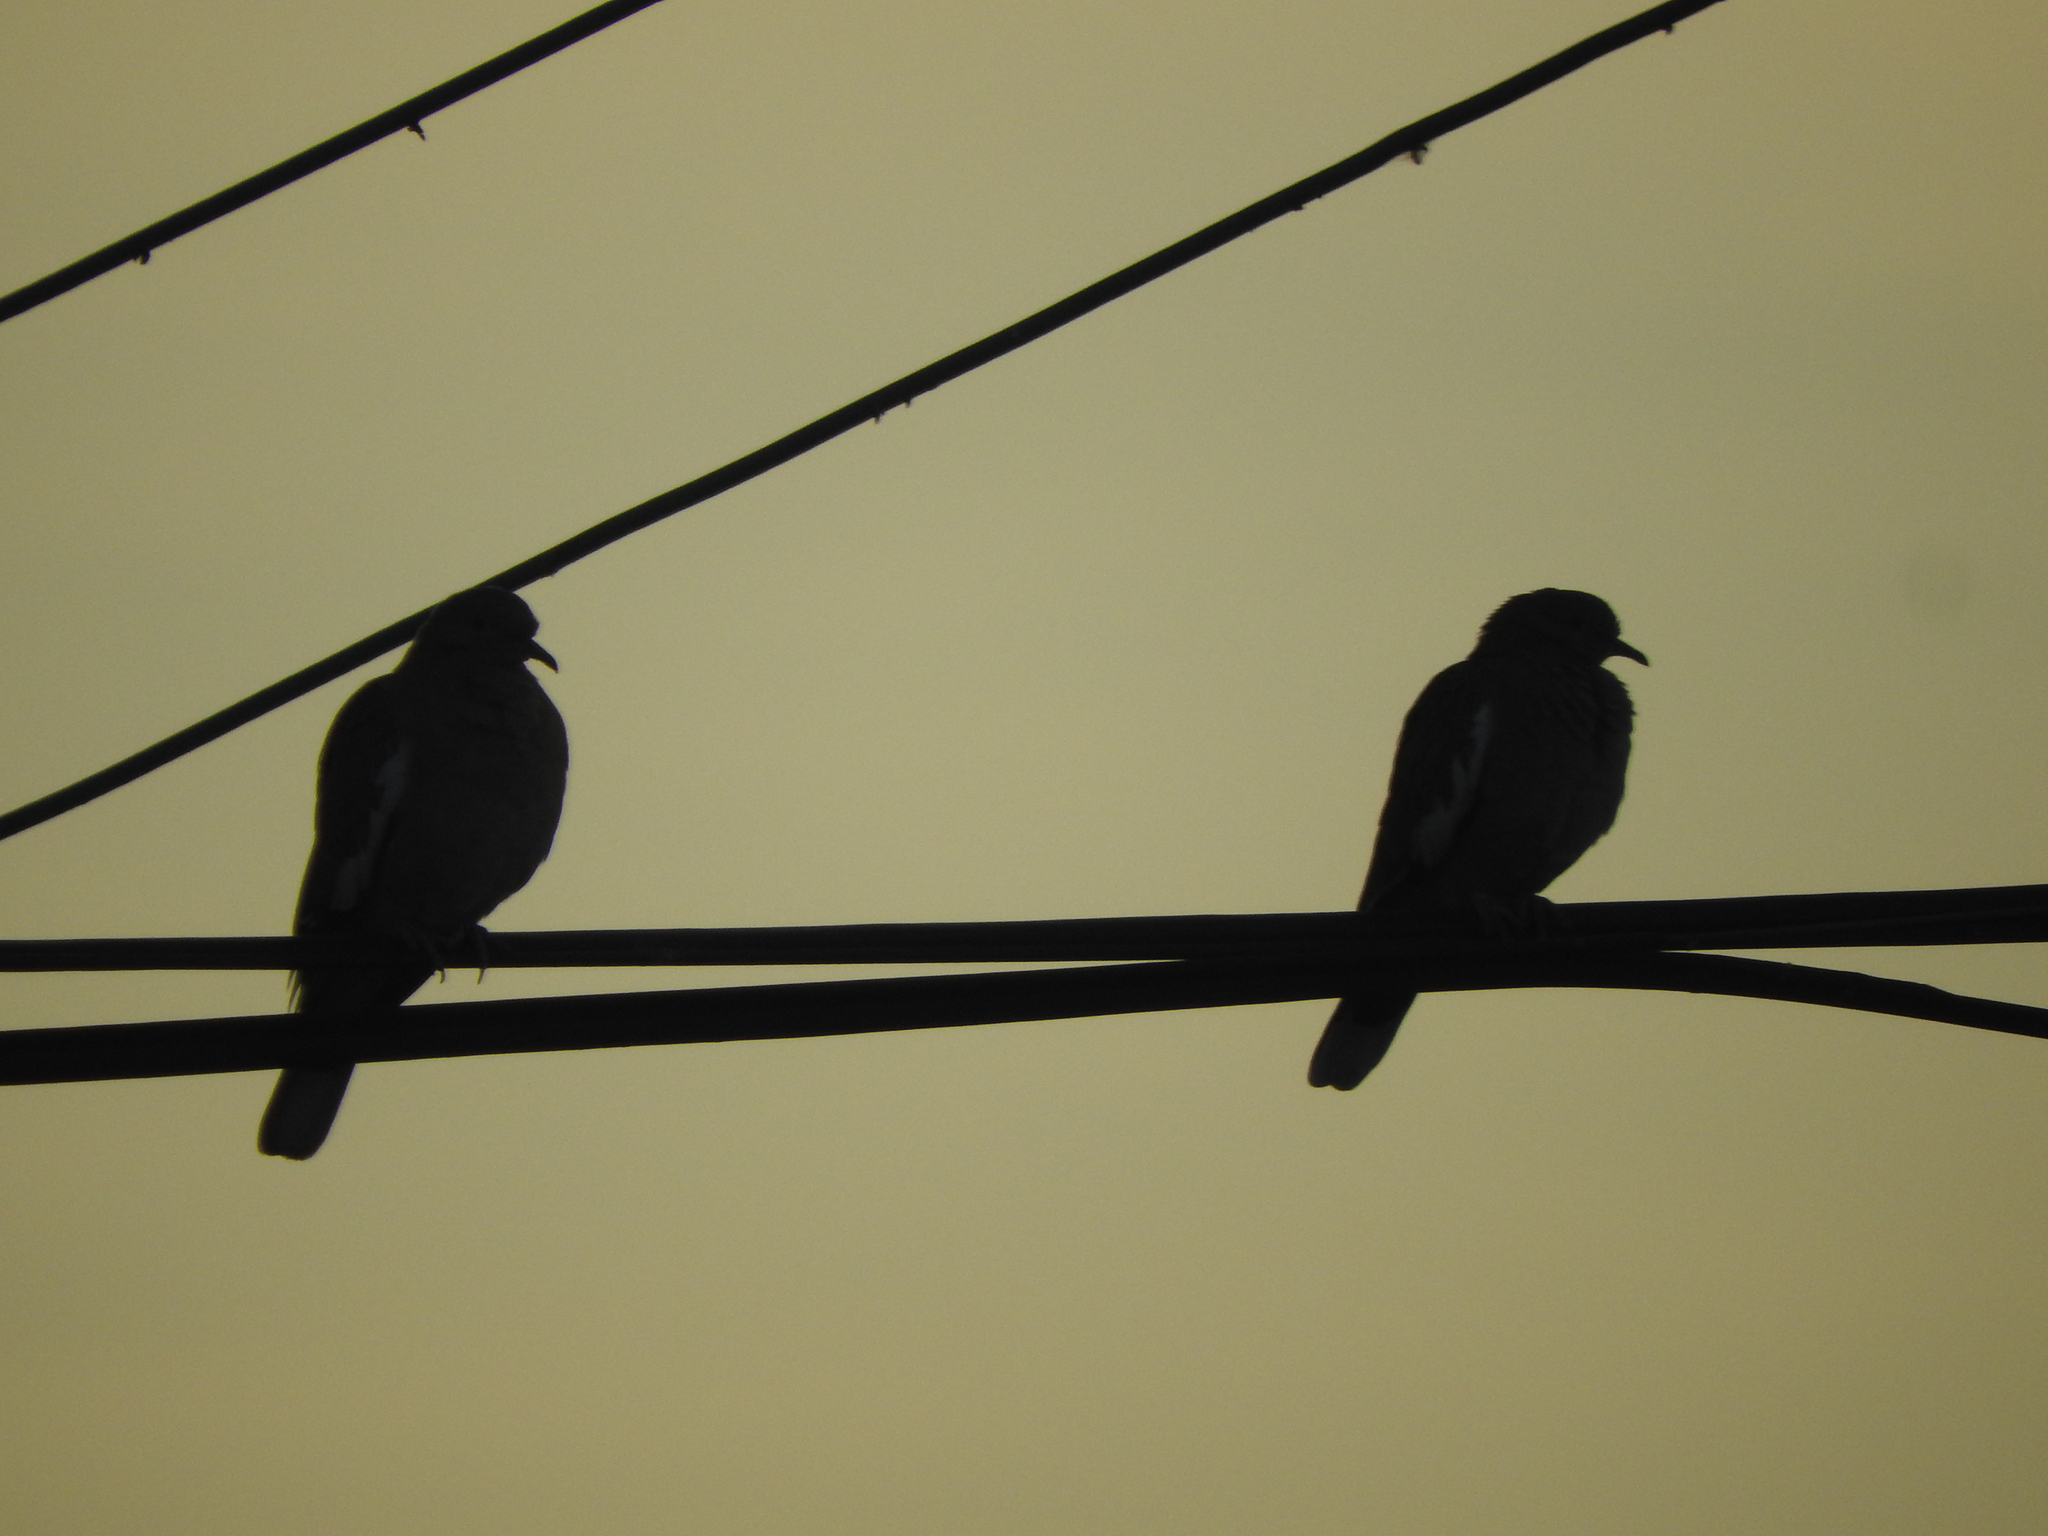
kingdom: Animalia
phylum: Chordata
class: Aves
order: Columbiformes
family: Columbidae
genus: Zenaida
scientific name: Zenaida asiatica
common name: White-winged dove
